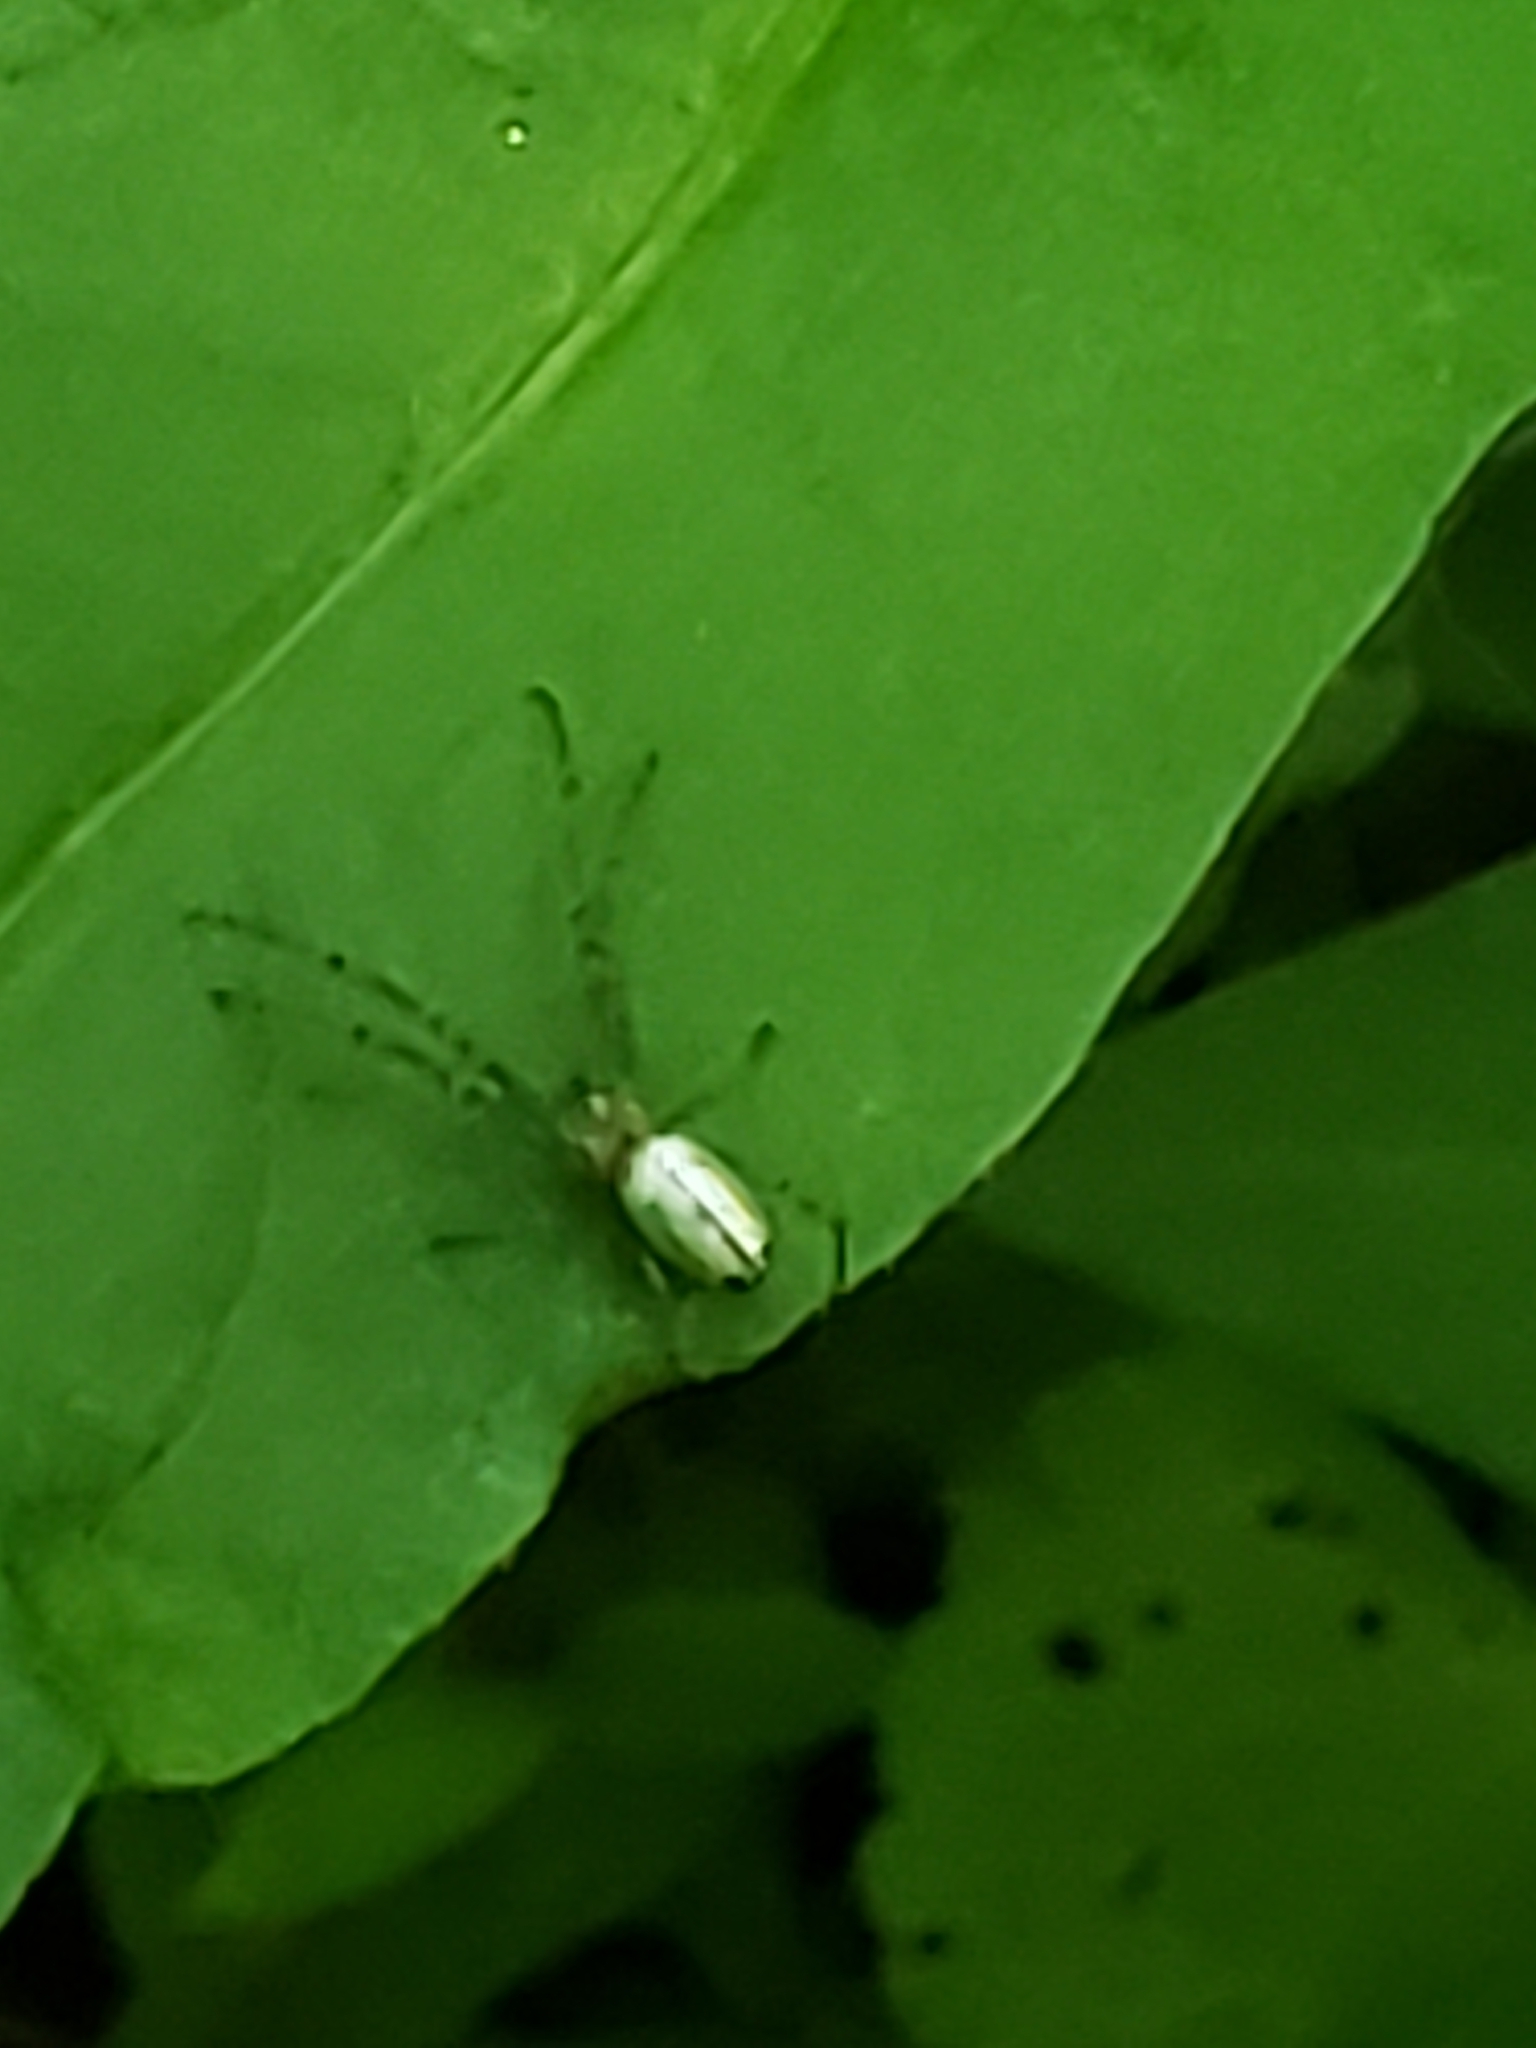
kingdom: Animalia
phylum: Arthropoda
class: Arachnida
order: Araneae
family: Tetragnathidae
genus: Leucauge
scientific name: Leucauge venusta
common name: Longjawed orb weavers
